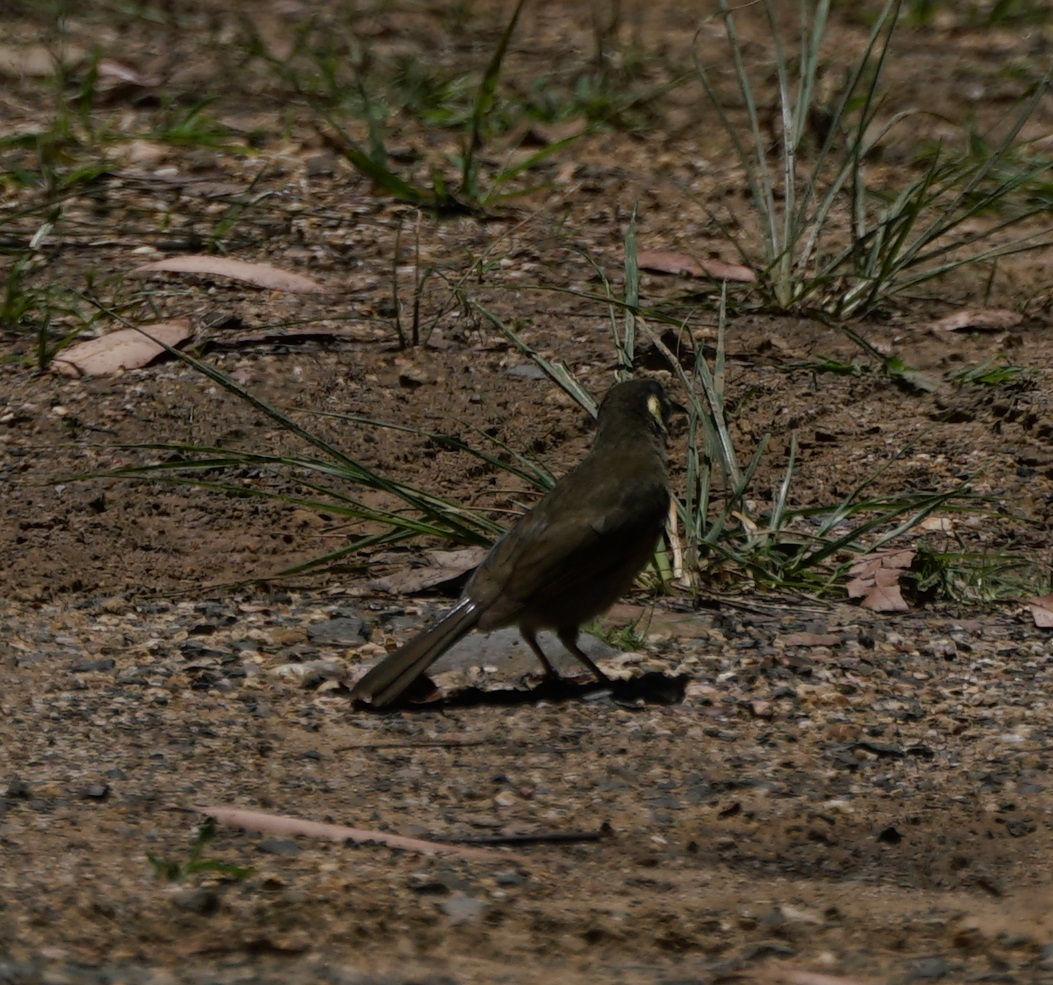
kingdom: Animalia
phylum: Chordata
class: Aves
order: Passeriformes
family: Meliphagidae
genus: Meliphaga
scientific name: Meliphaga lewinii
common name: Lewin's honeyeater
